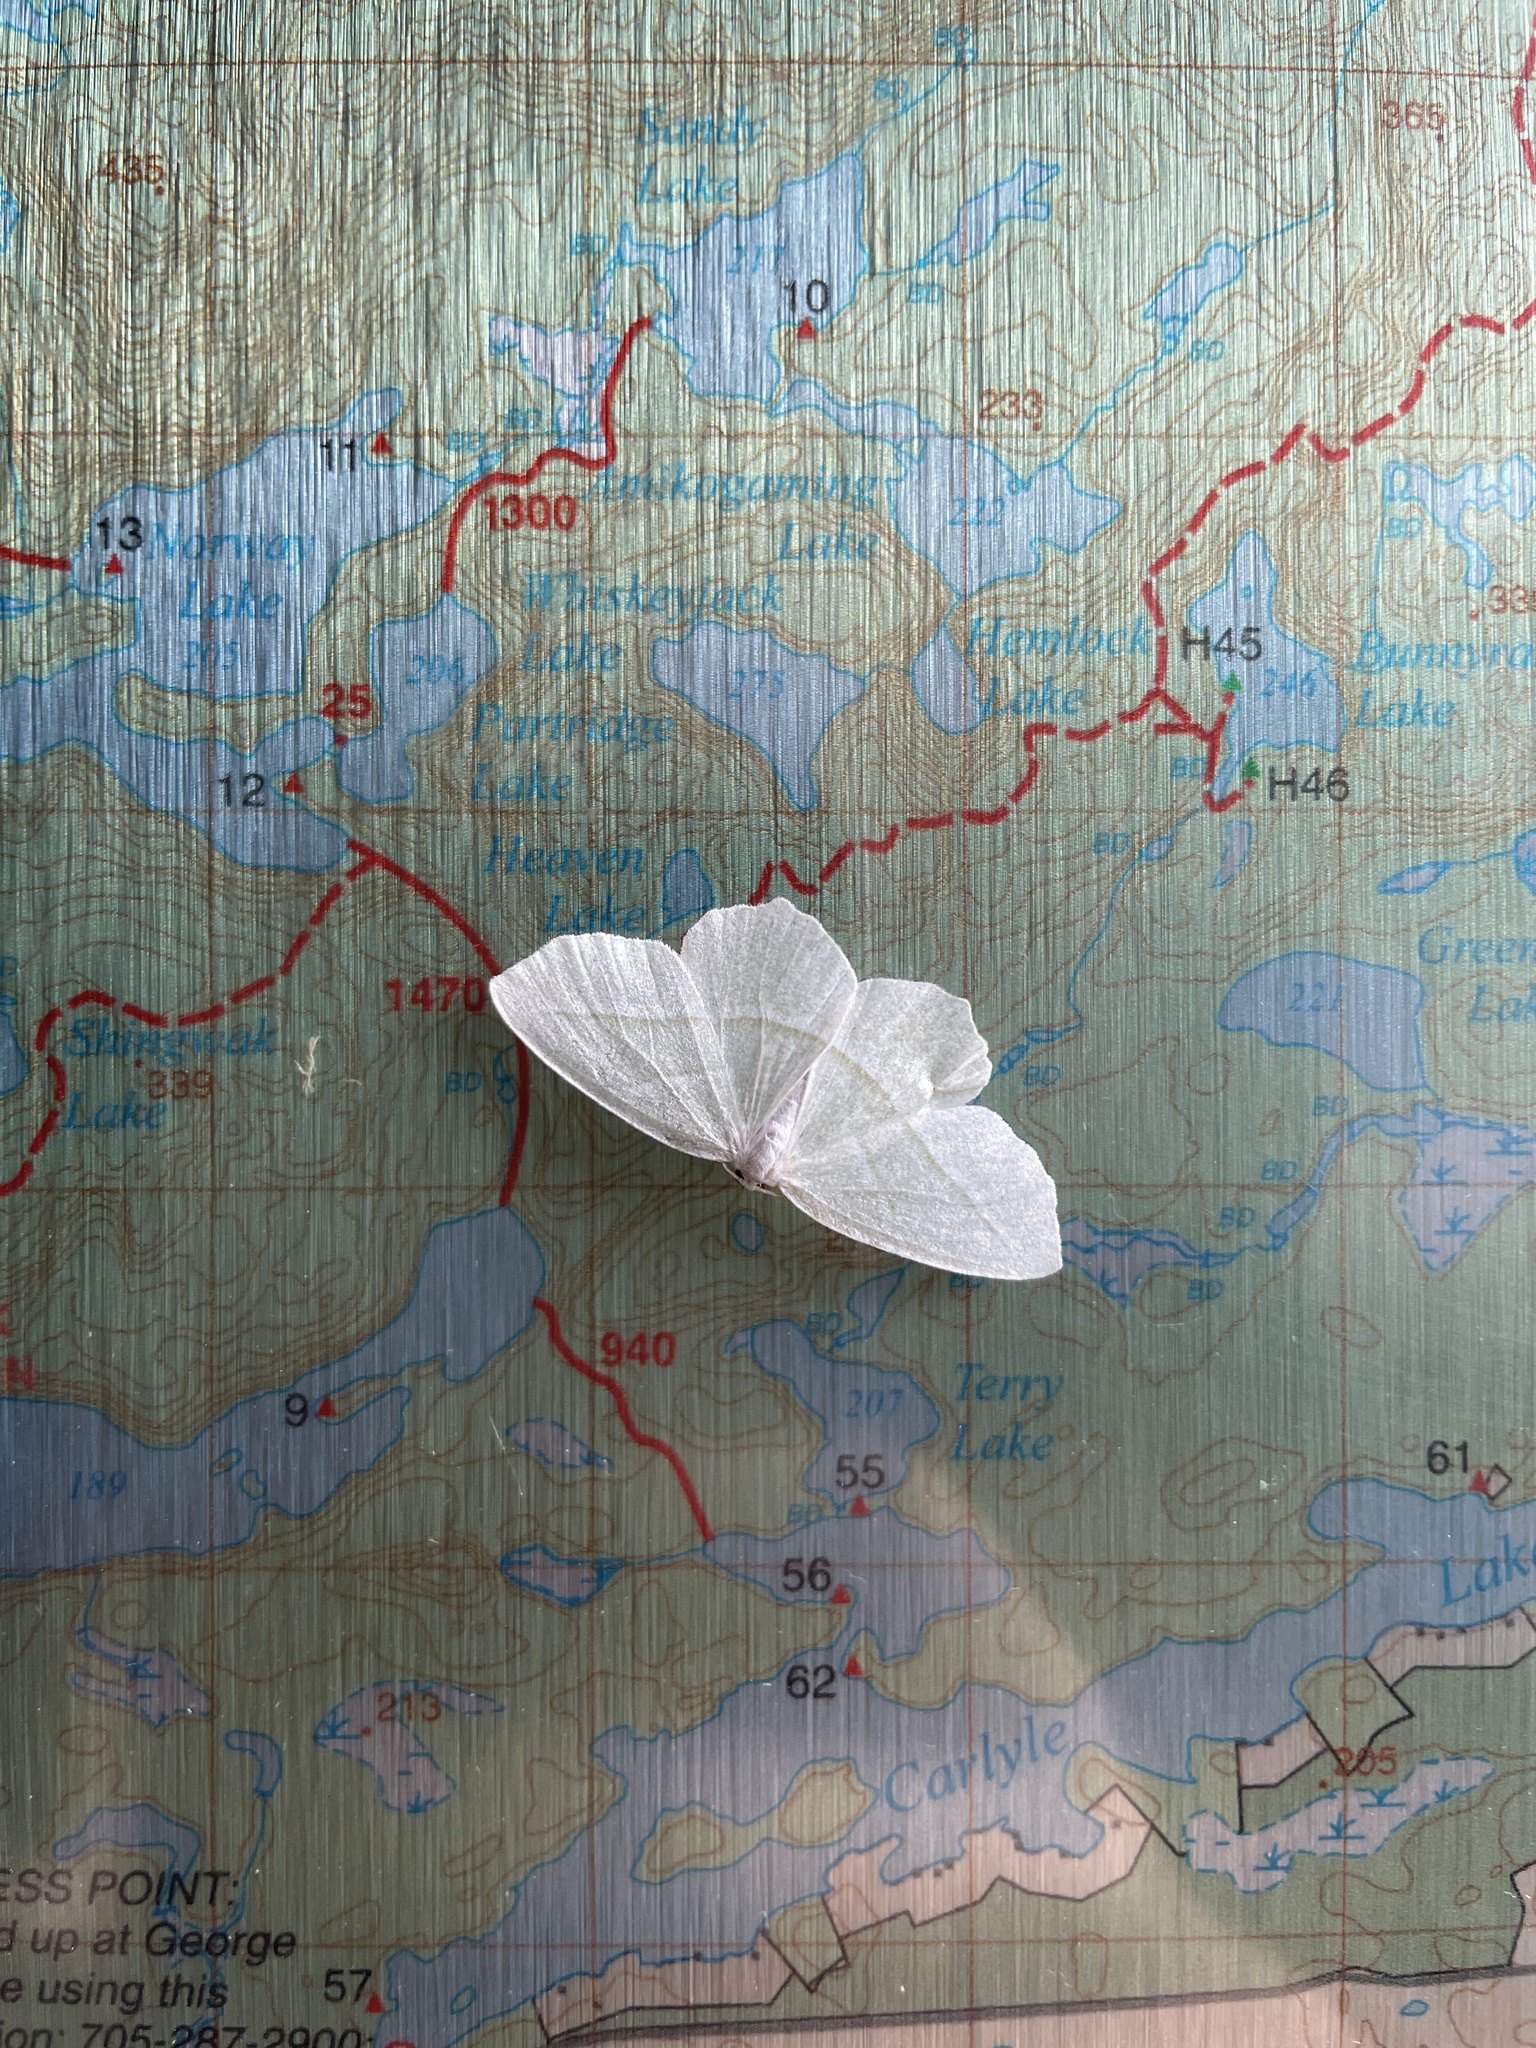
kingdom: Animalia
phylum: Arthropoda
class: Insecta
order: Lepidoptera
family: Geometridae
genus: Campaea
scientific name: Campaea perlata
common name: Fringed looper
